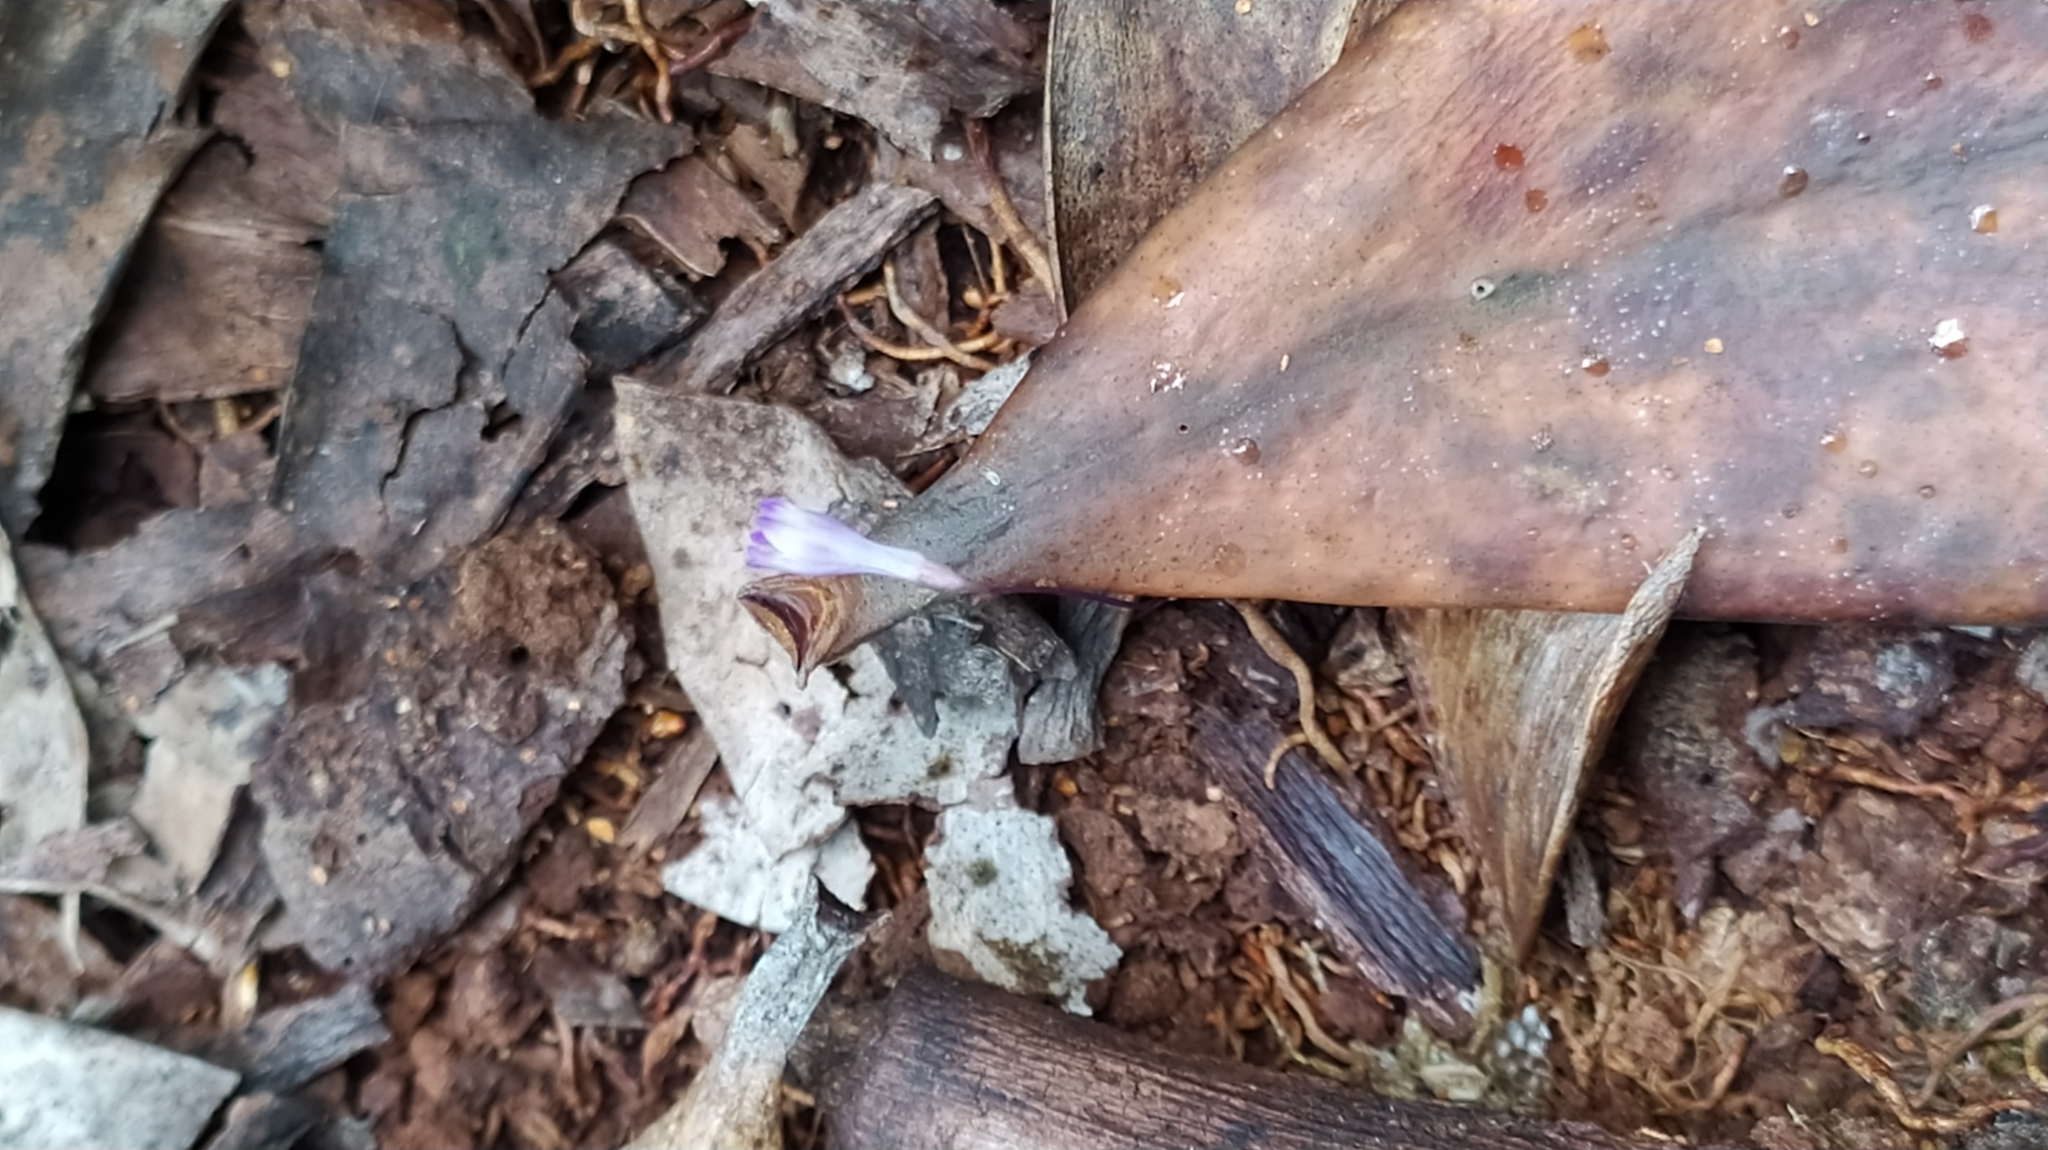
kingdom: Plantae
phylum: Tracheophyta
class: Liliopsida
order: Dioscoreales
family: Burmanniaceae
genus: Apteria
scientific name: Apteria aphylla
